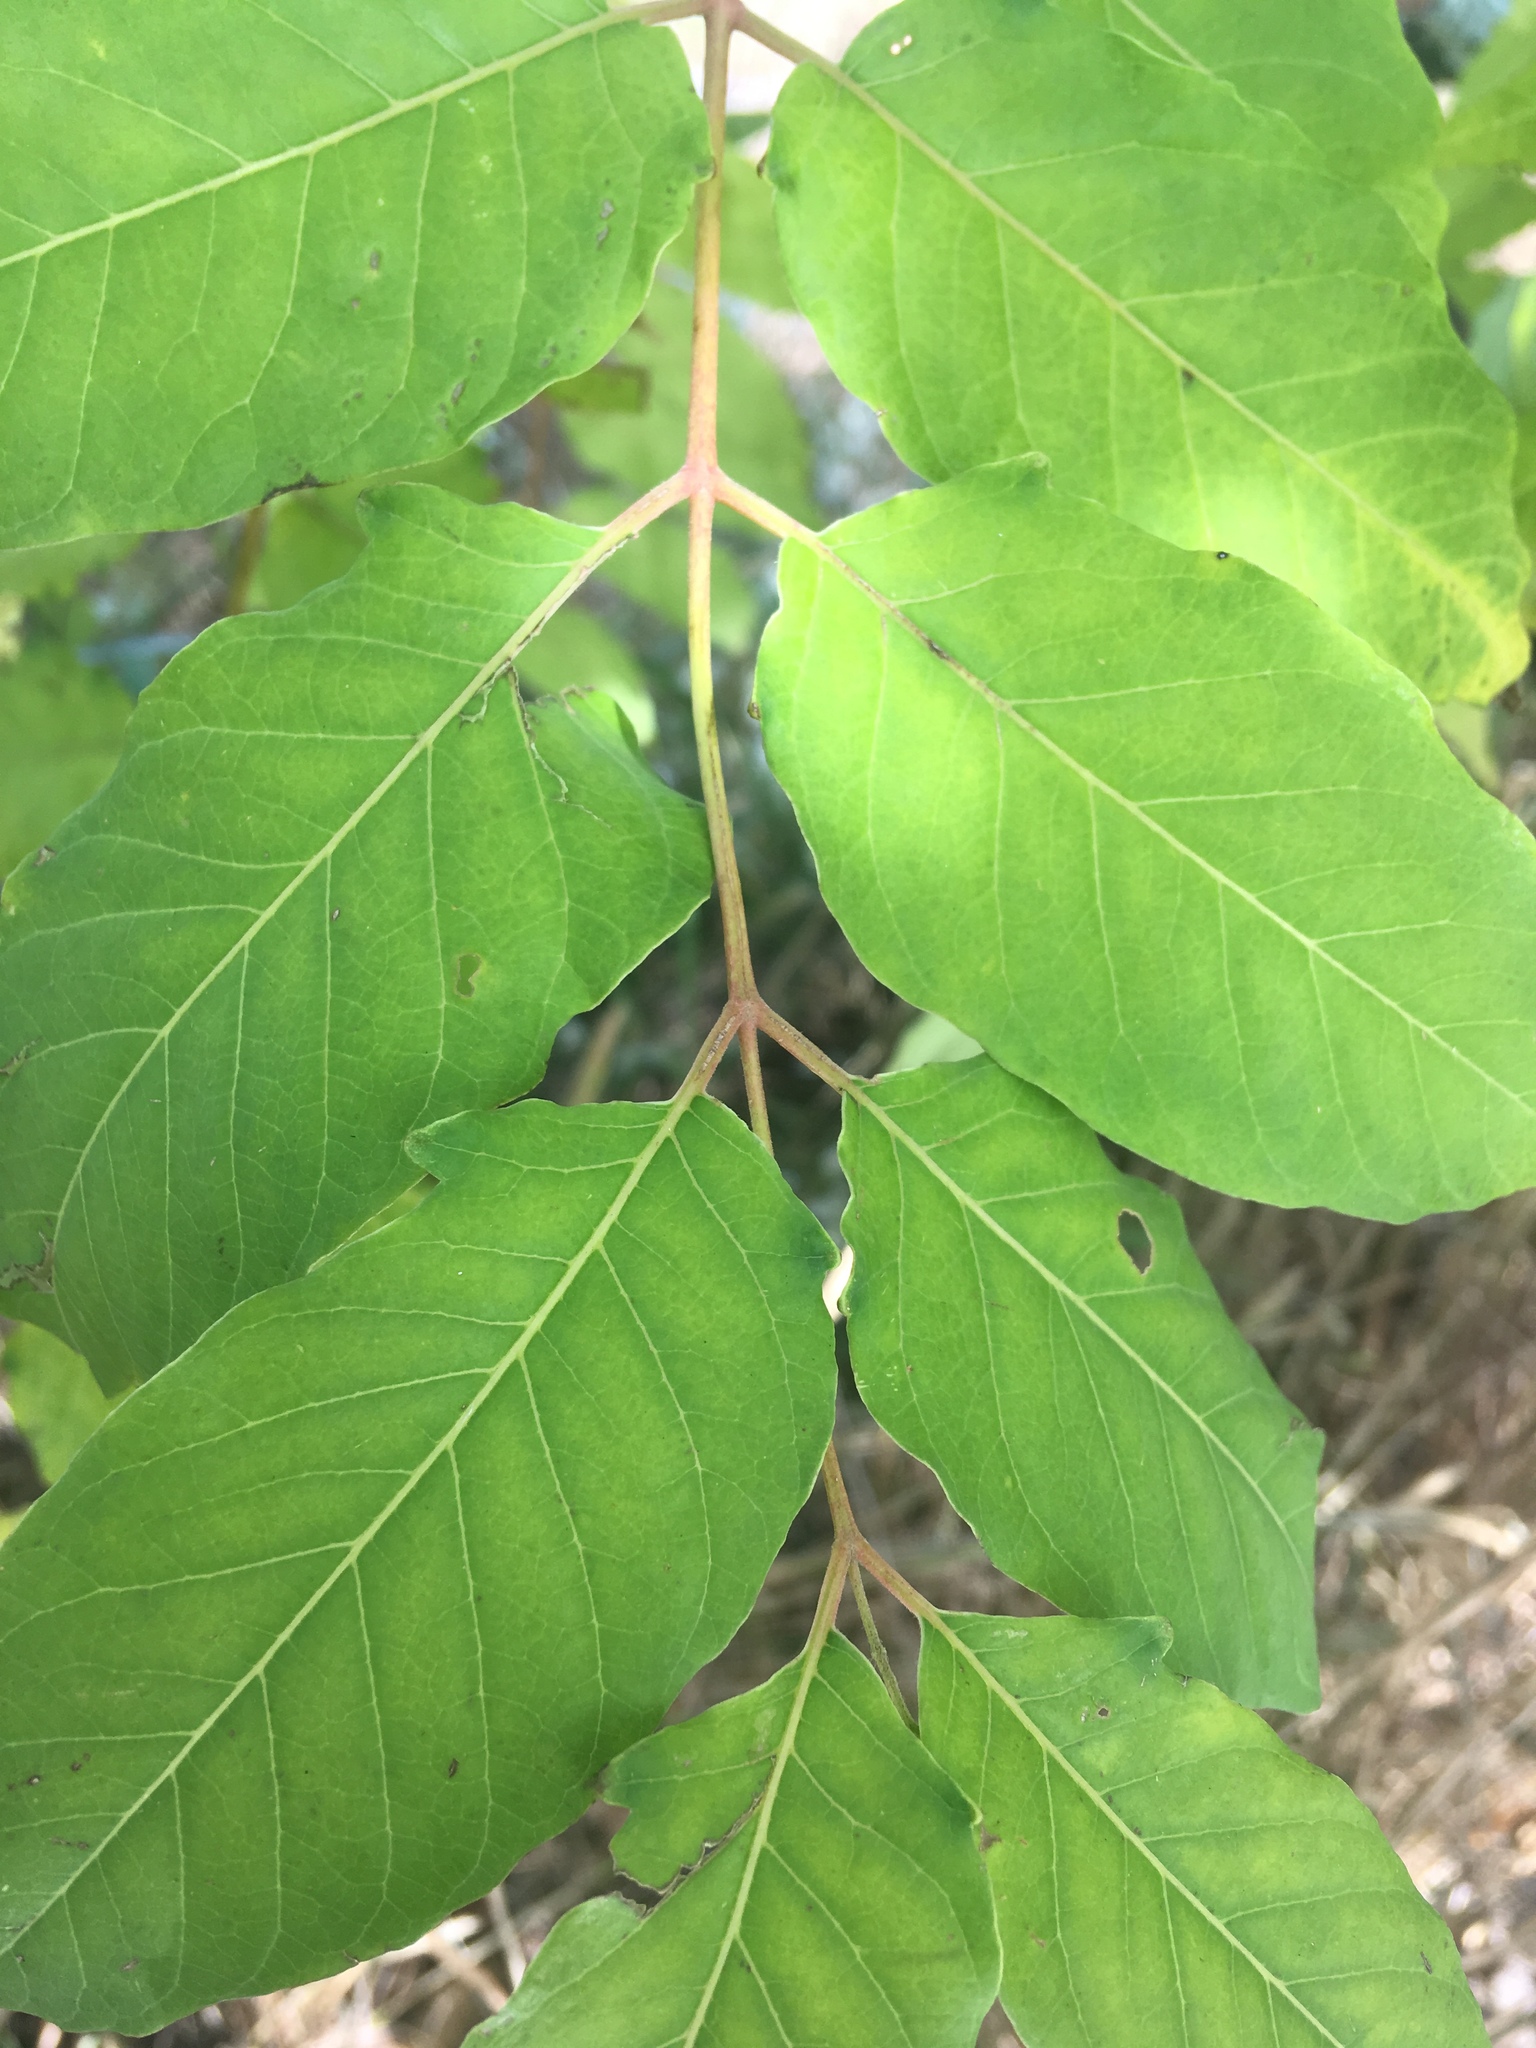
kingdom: Plantae
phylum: Tracheophyta
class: Magnoliopsida
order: Sapindales
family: Simaroubaceae
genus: Ailanthus
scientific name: Ailanthus altissima
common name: Tree-of-heaven
